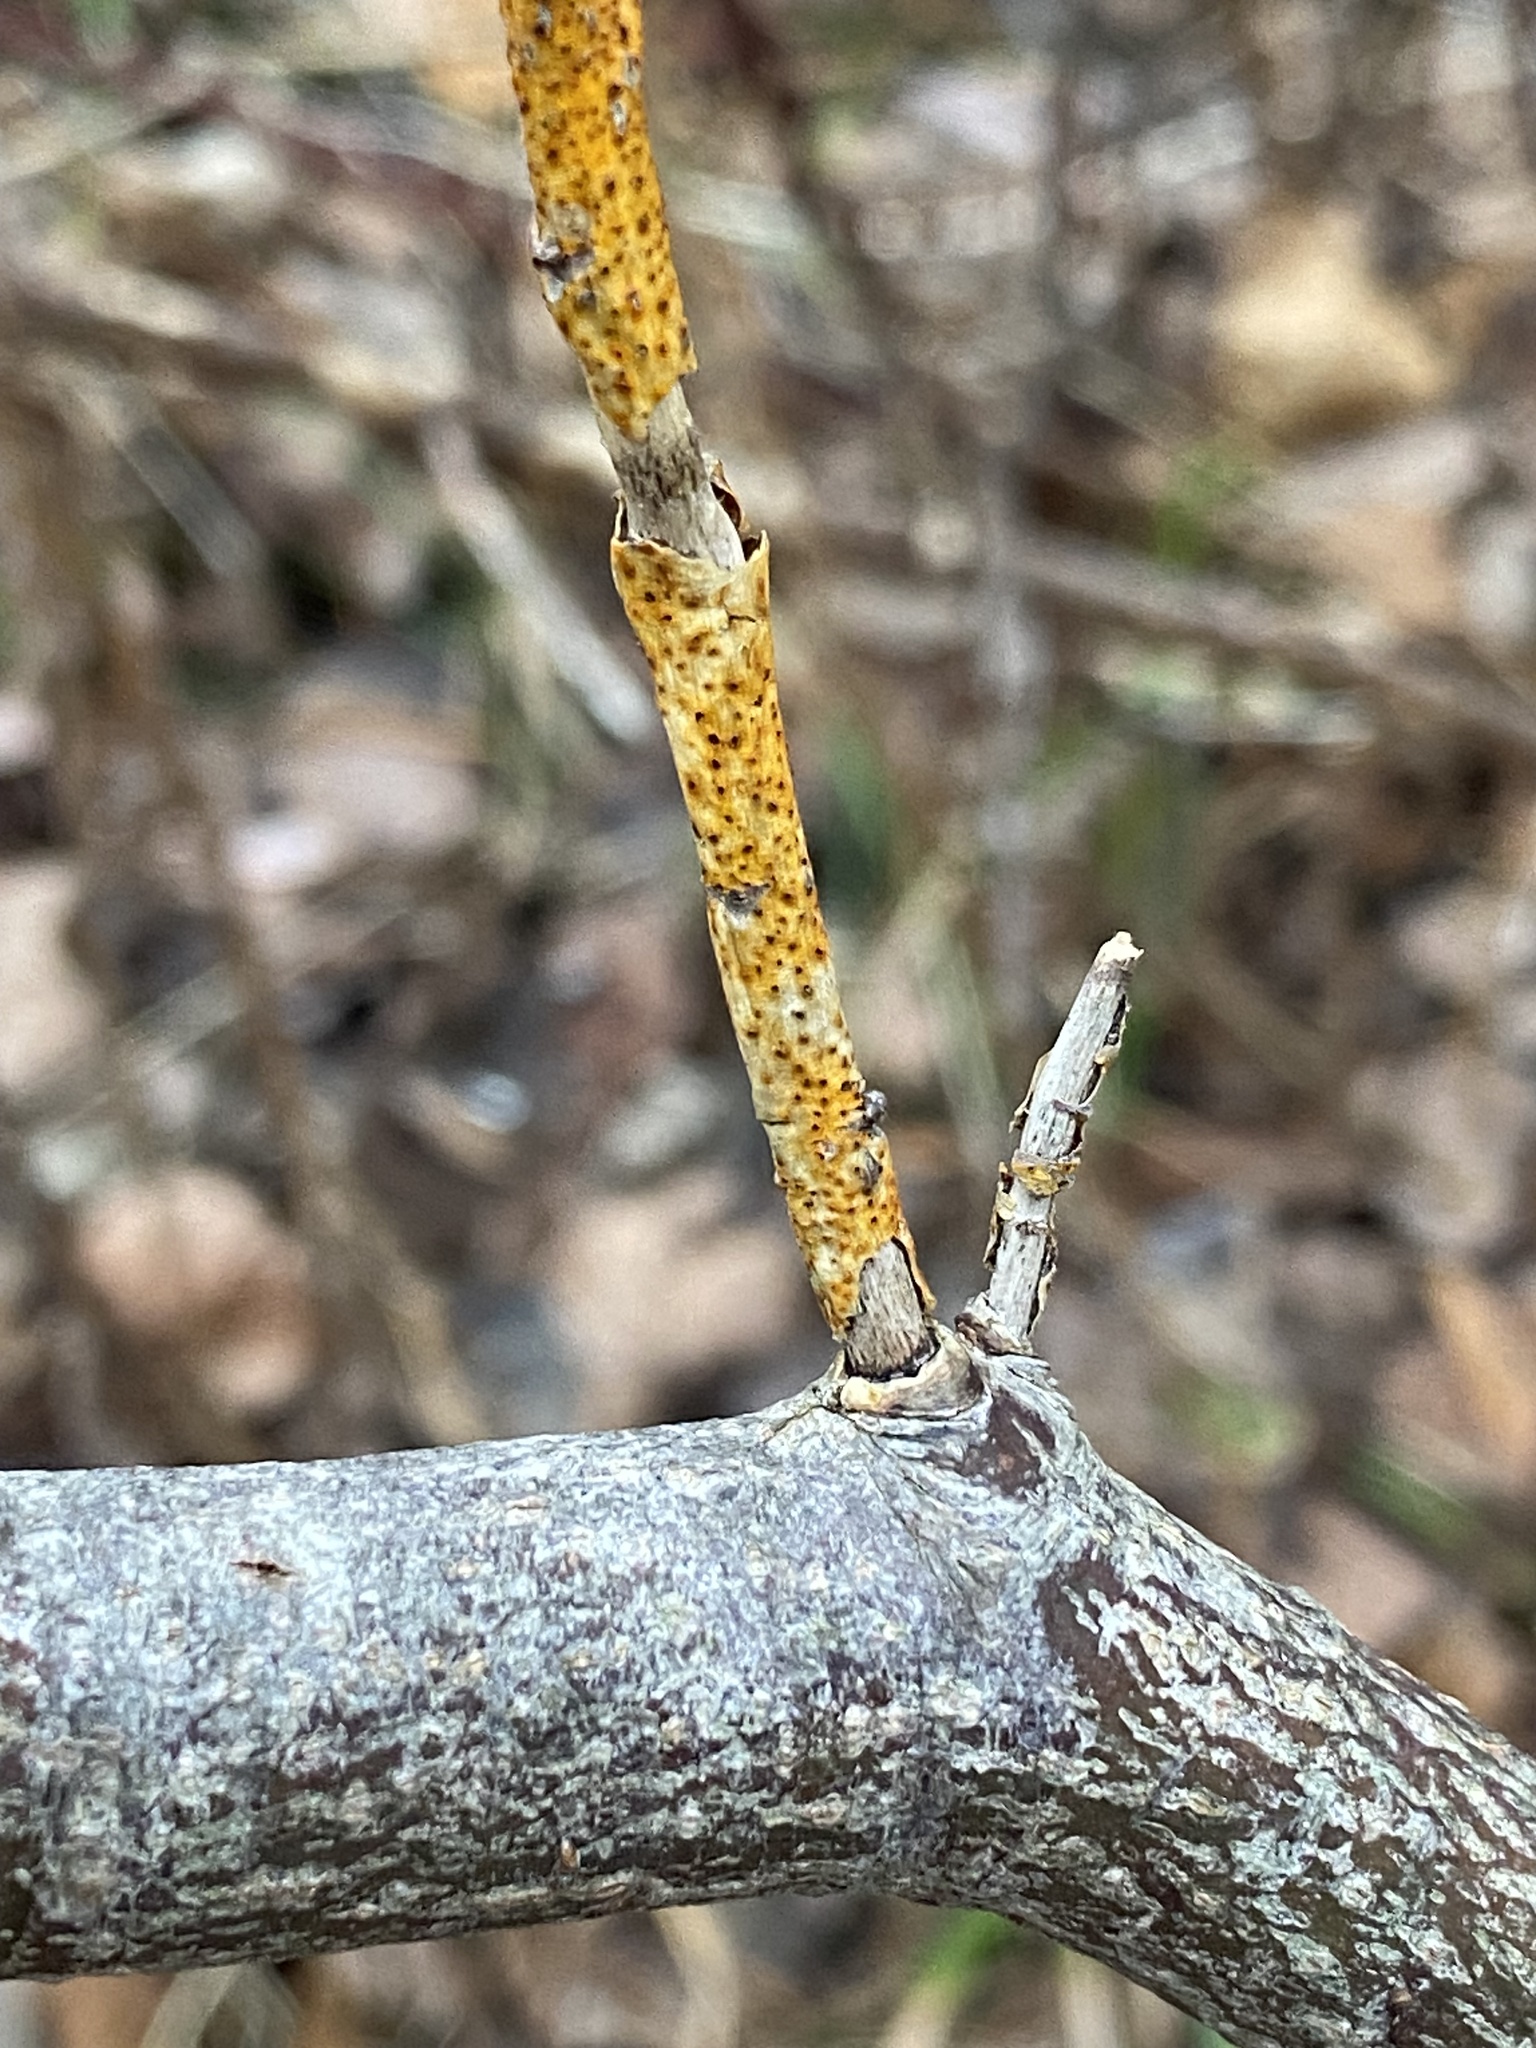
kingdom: Fungi
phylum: Ascomycota
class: Sordariomycetes
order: Diaporthales
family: Cryphonectriaceae
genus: Aurantioporthe
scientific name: Aurantioporthe corni
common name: Dogwood golden canker
